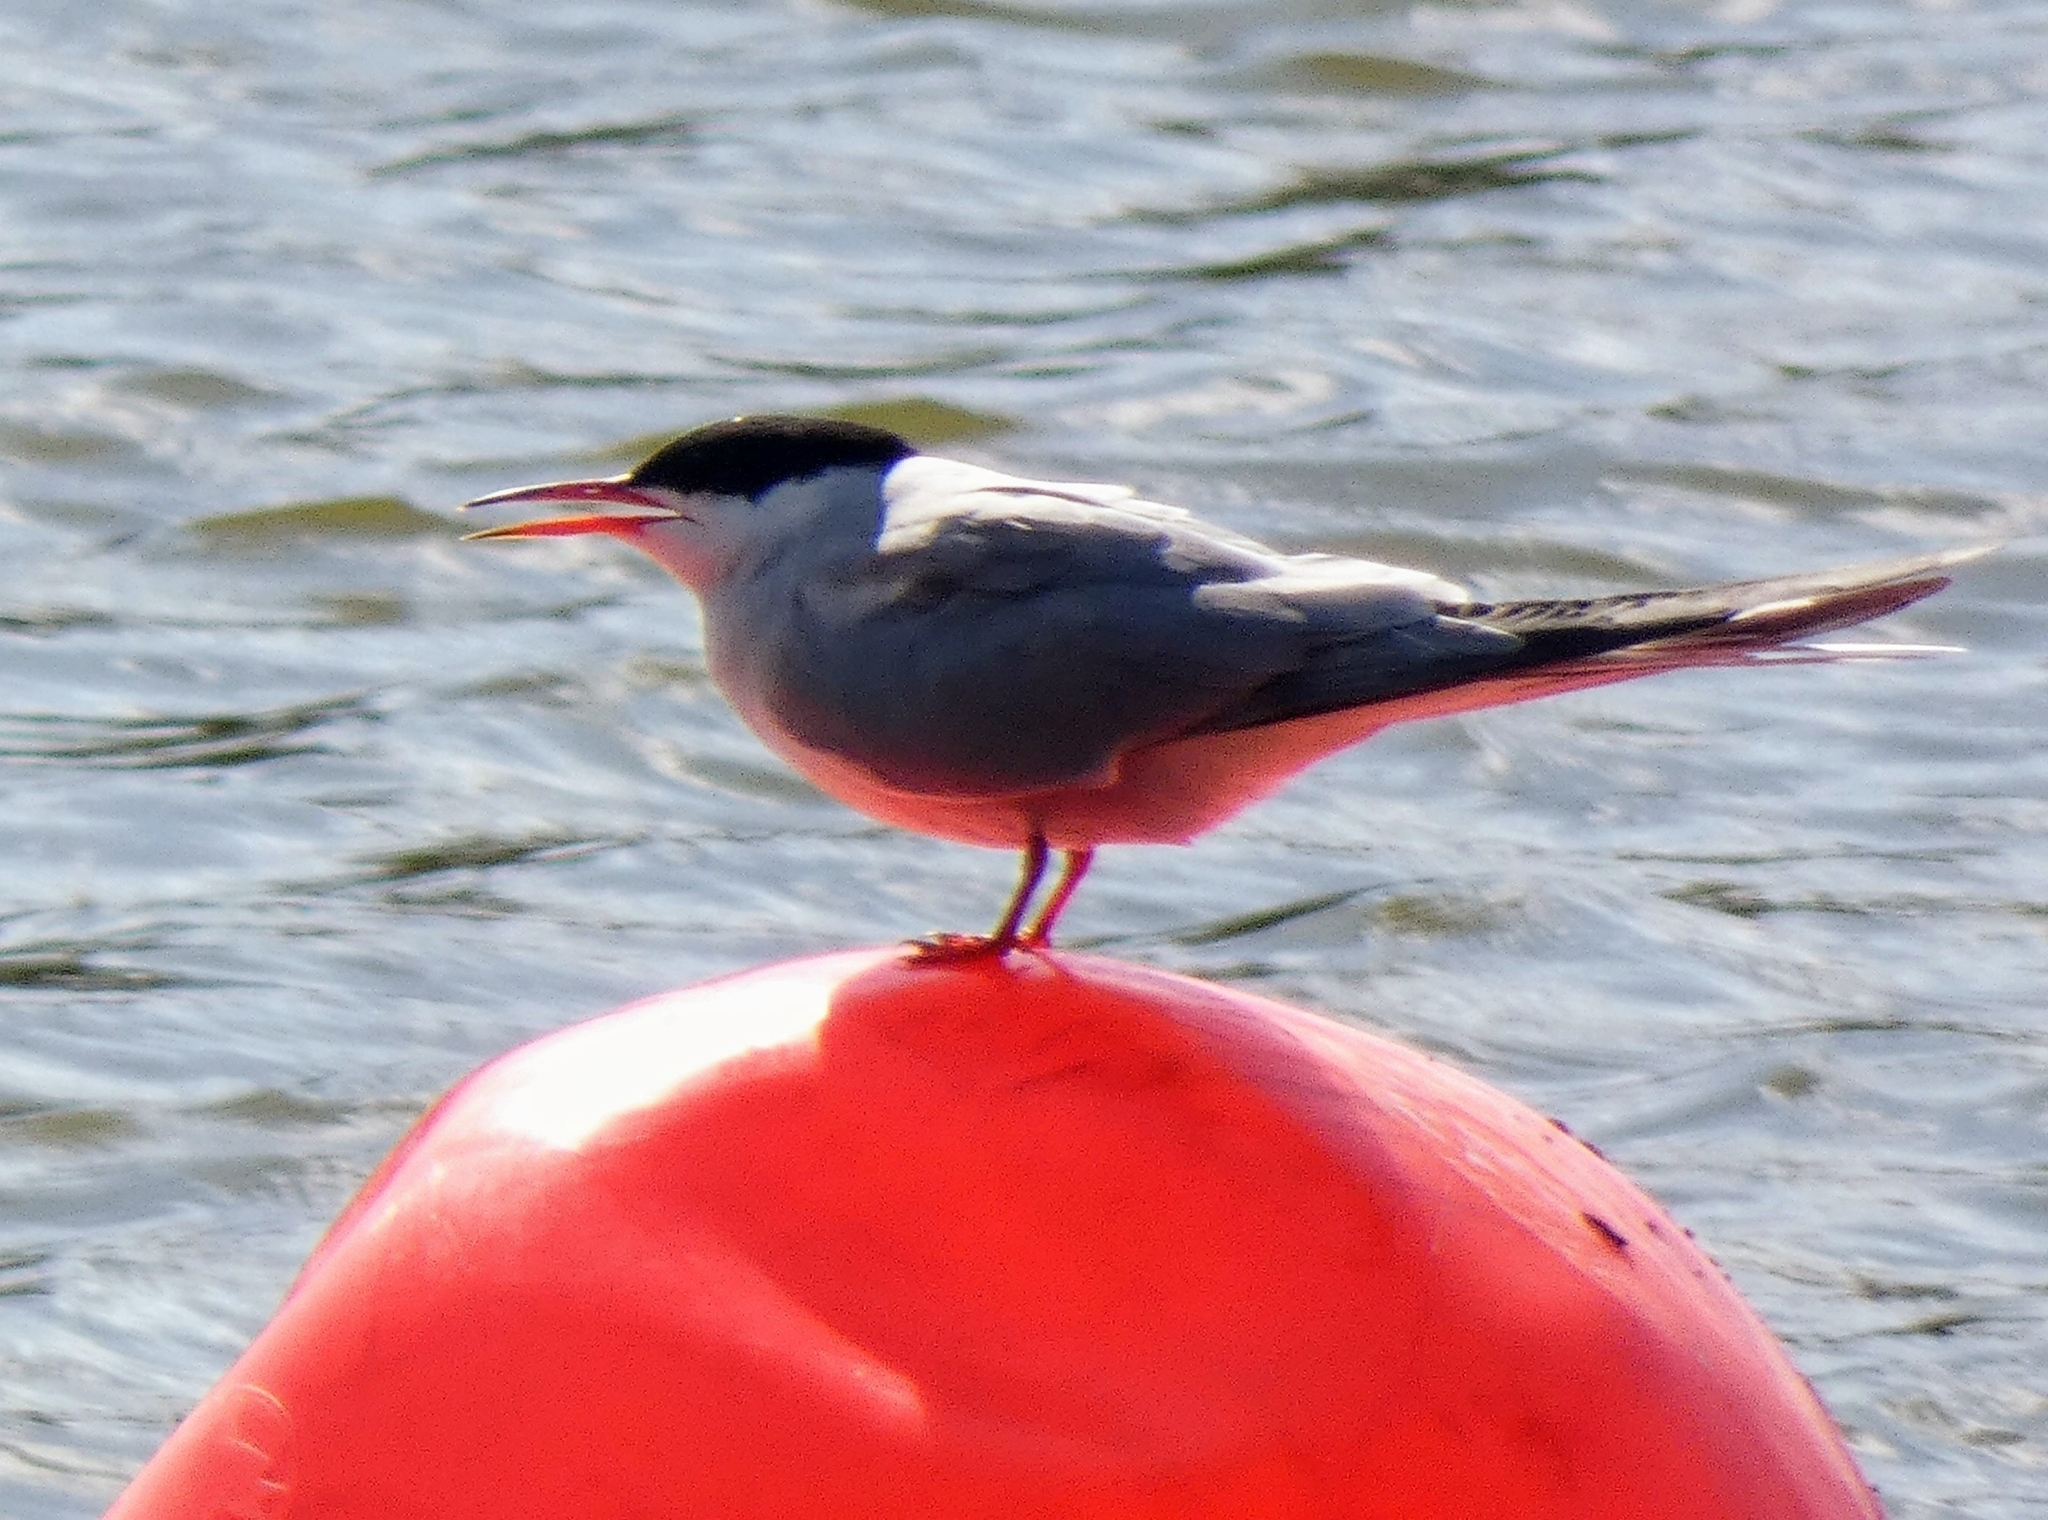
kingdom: Animalia
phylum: Chordata
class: Aves
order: Charadriiformes
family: Laridae
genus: Sterna
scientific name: Sterna hirundo
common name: Common tern
